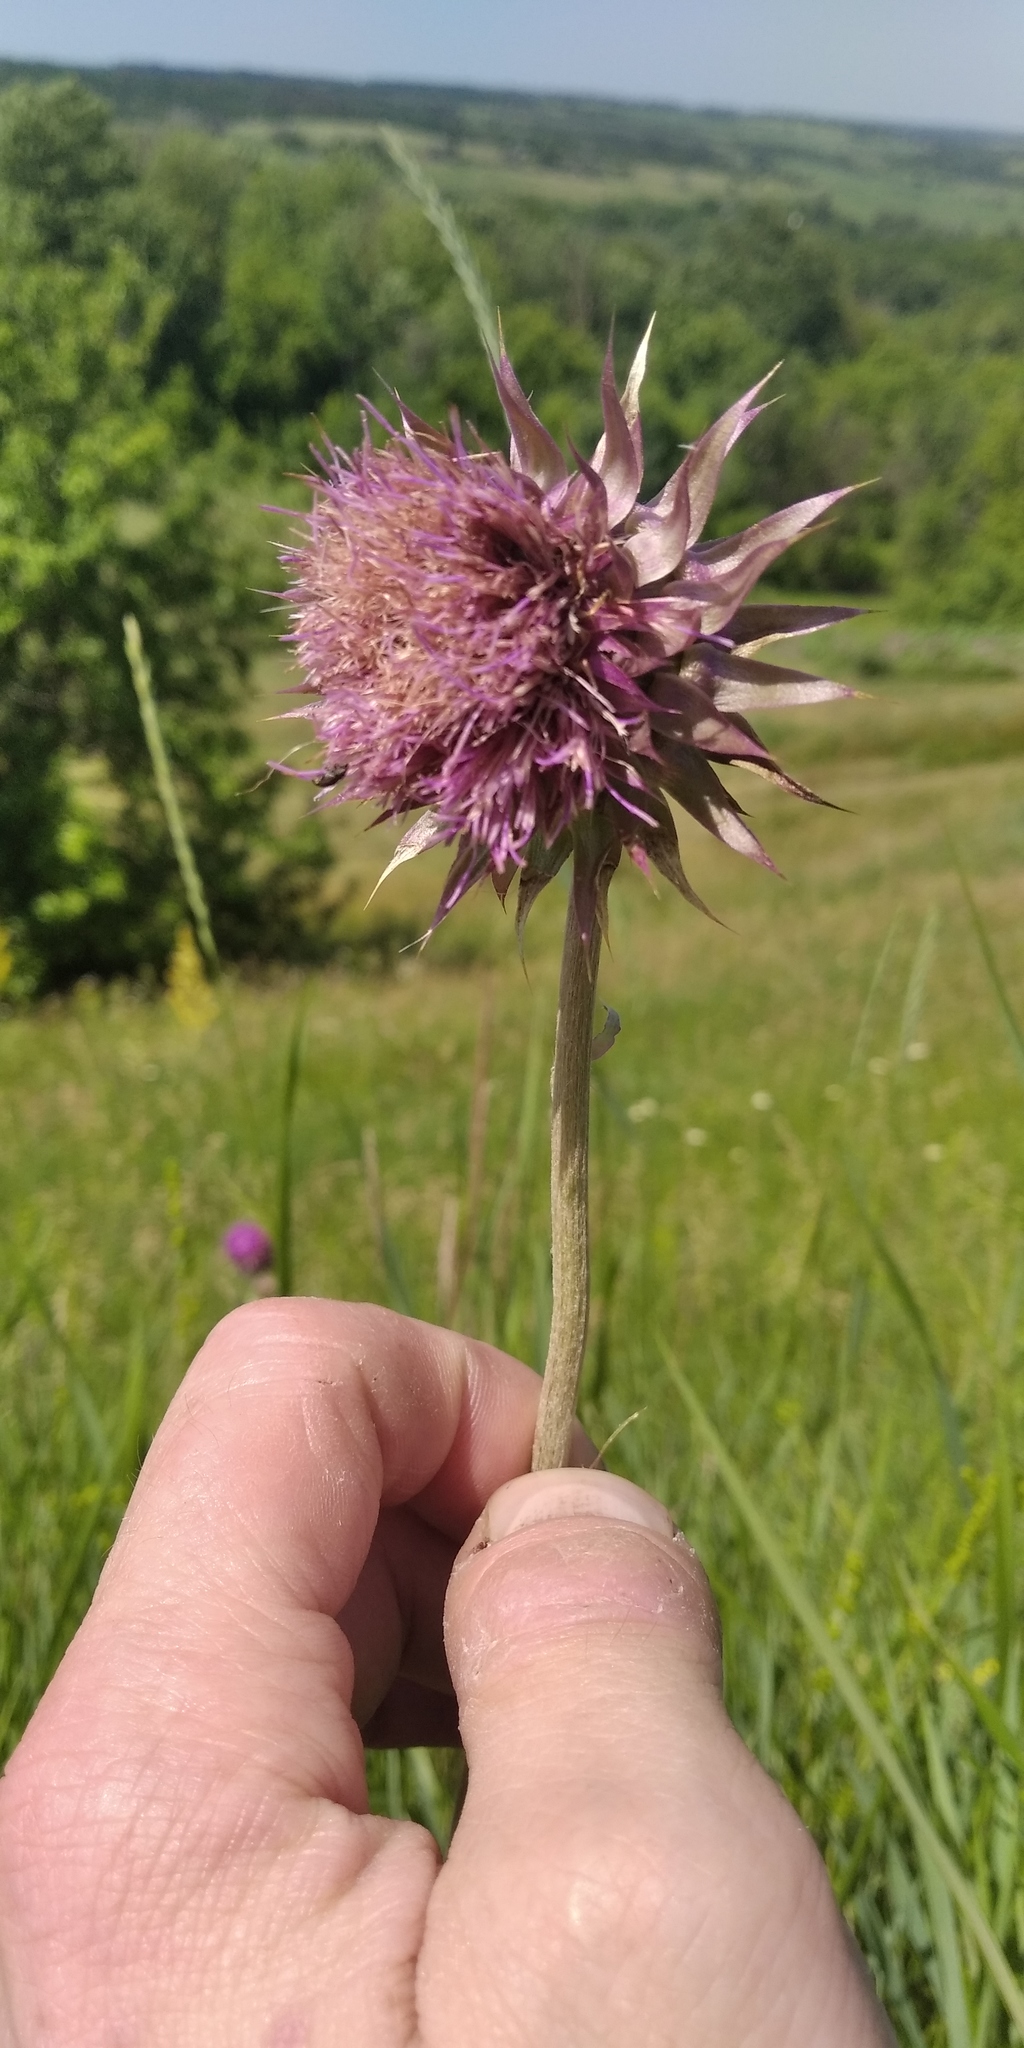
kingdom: Plantae
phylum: Tracheophyta
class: Magnoliopsida
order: Asterales
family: Asteraceae
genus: Carduus
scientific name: Carduus nutans
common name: Musk thistle
